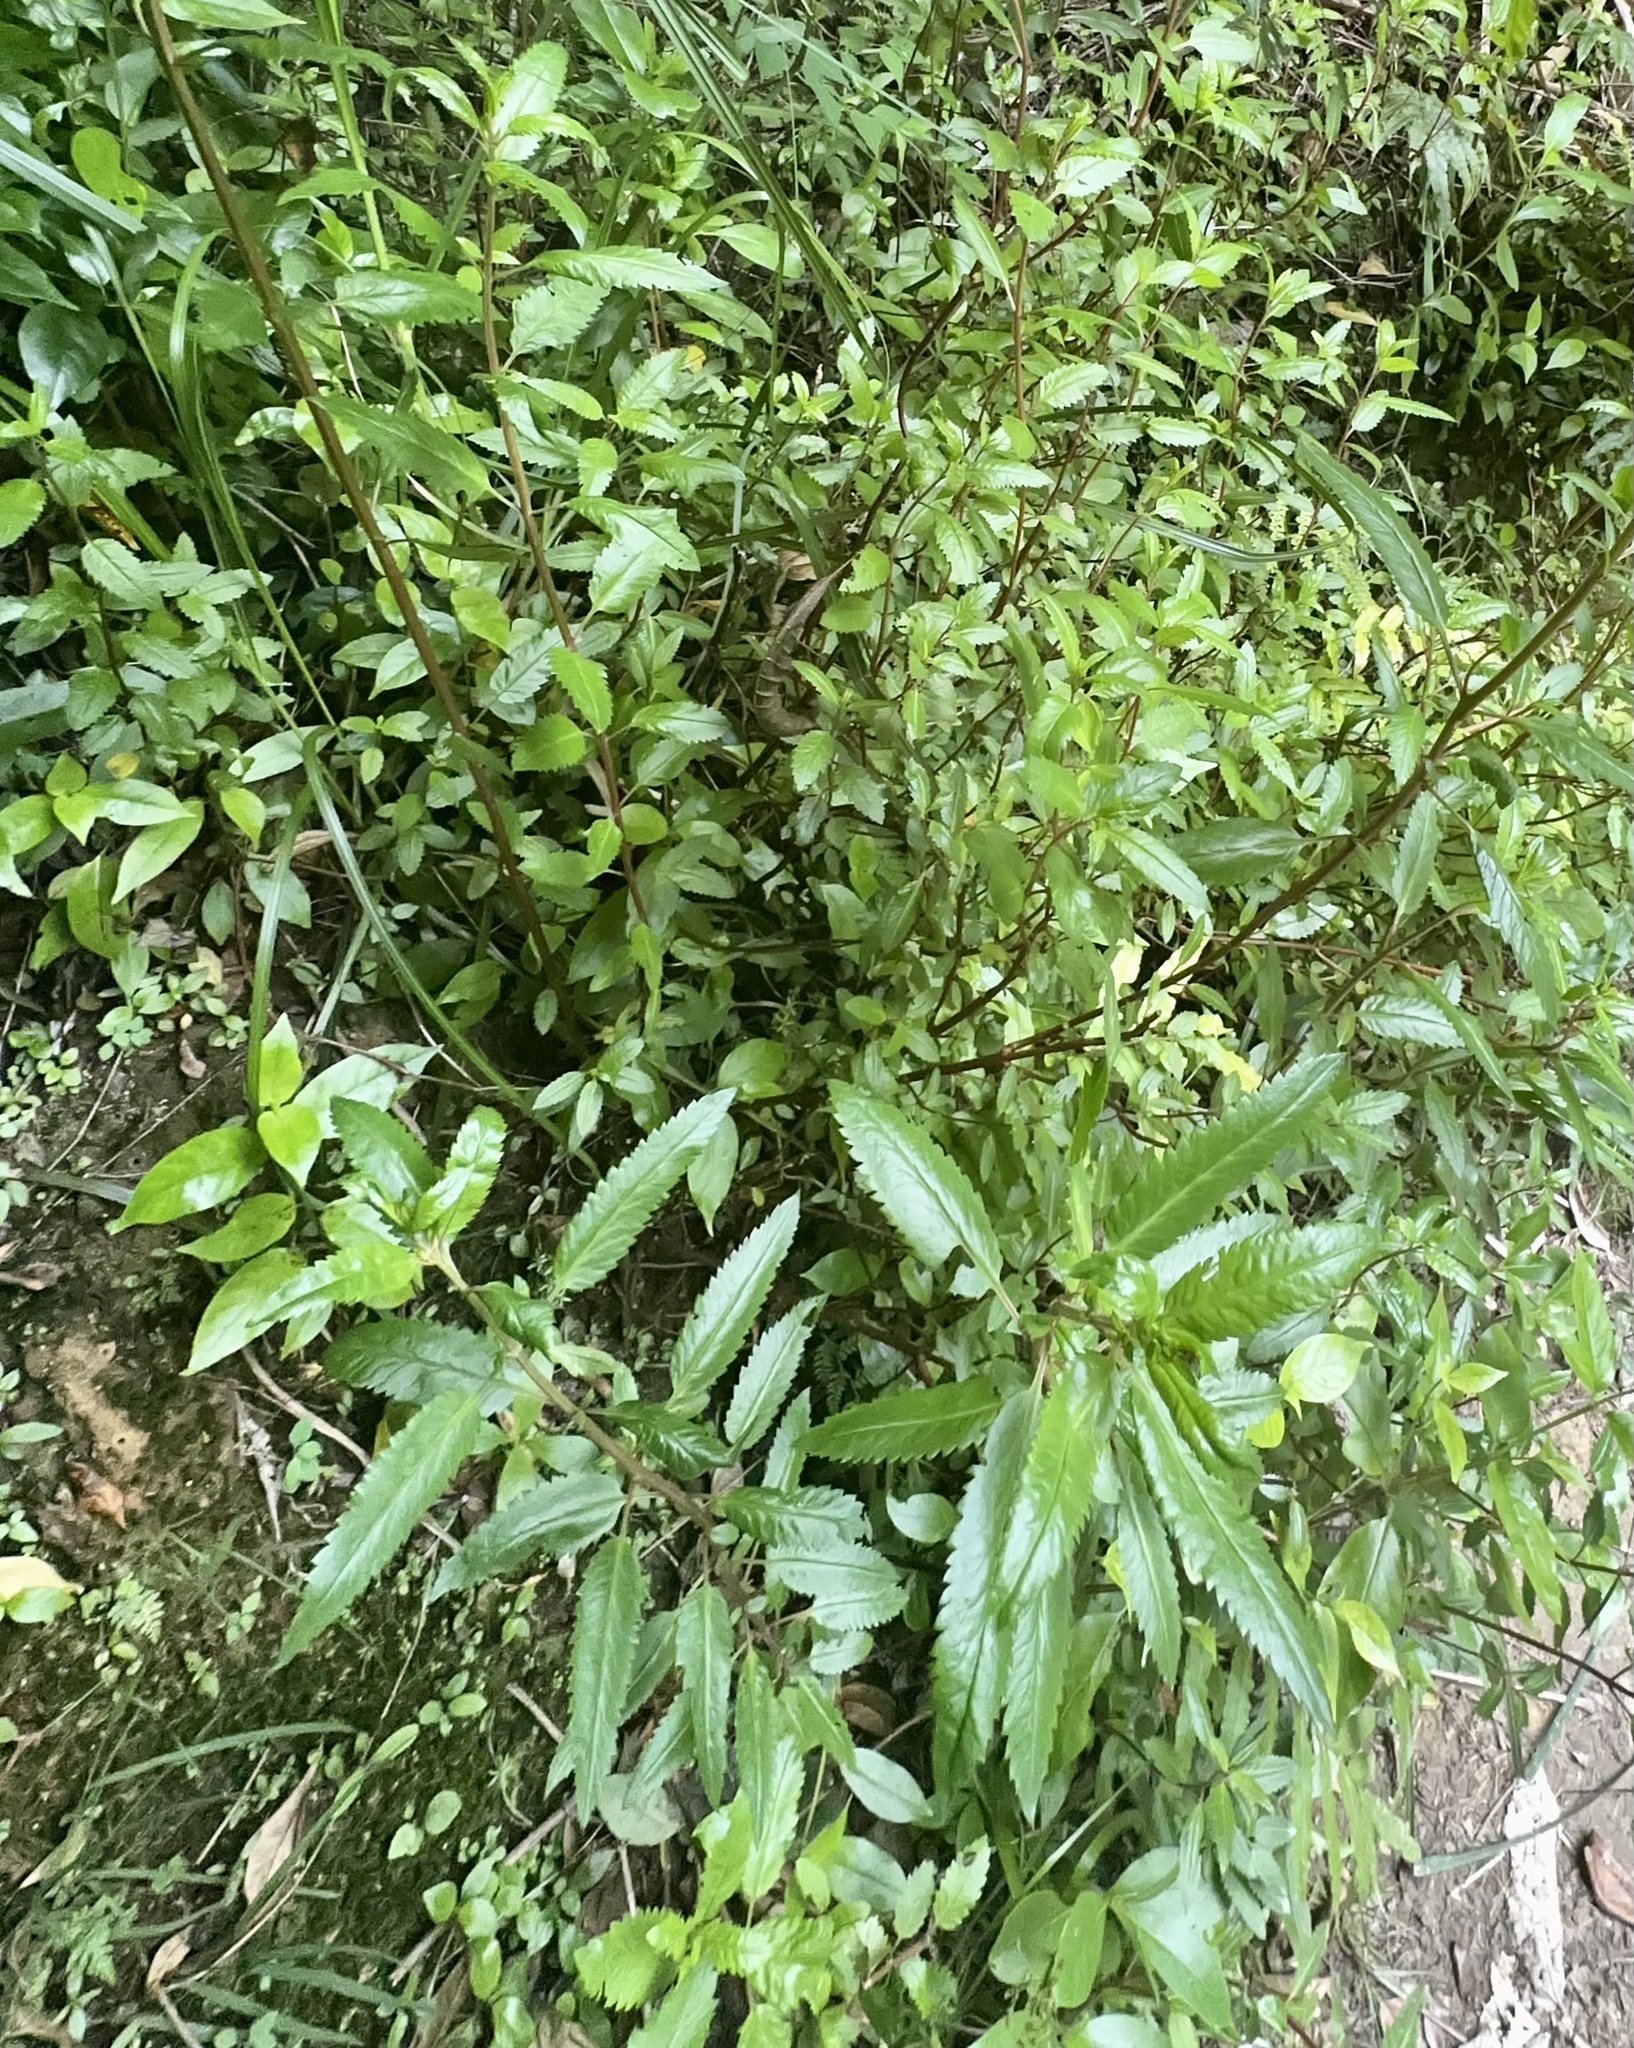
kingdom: Plantae
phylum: Tracheophyta
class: Magnoliopsida
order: Saxifragales
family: Haloragaceae
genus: Haloragis
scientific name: Haloragis erecta
